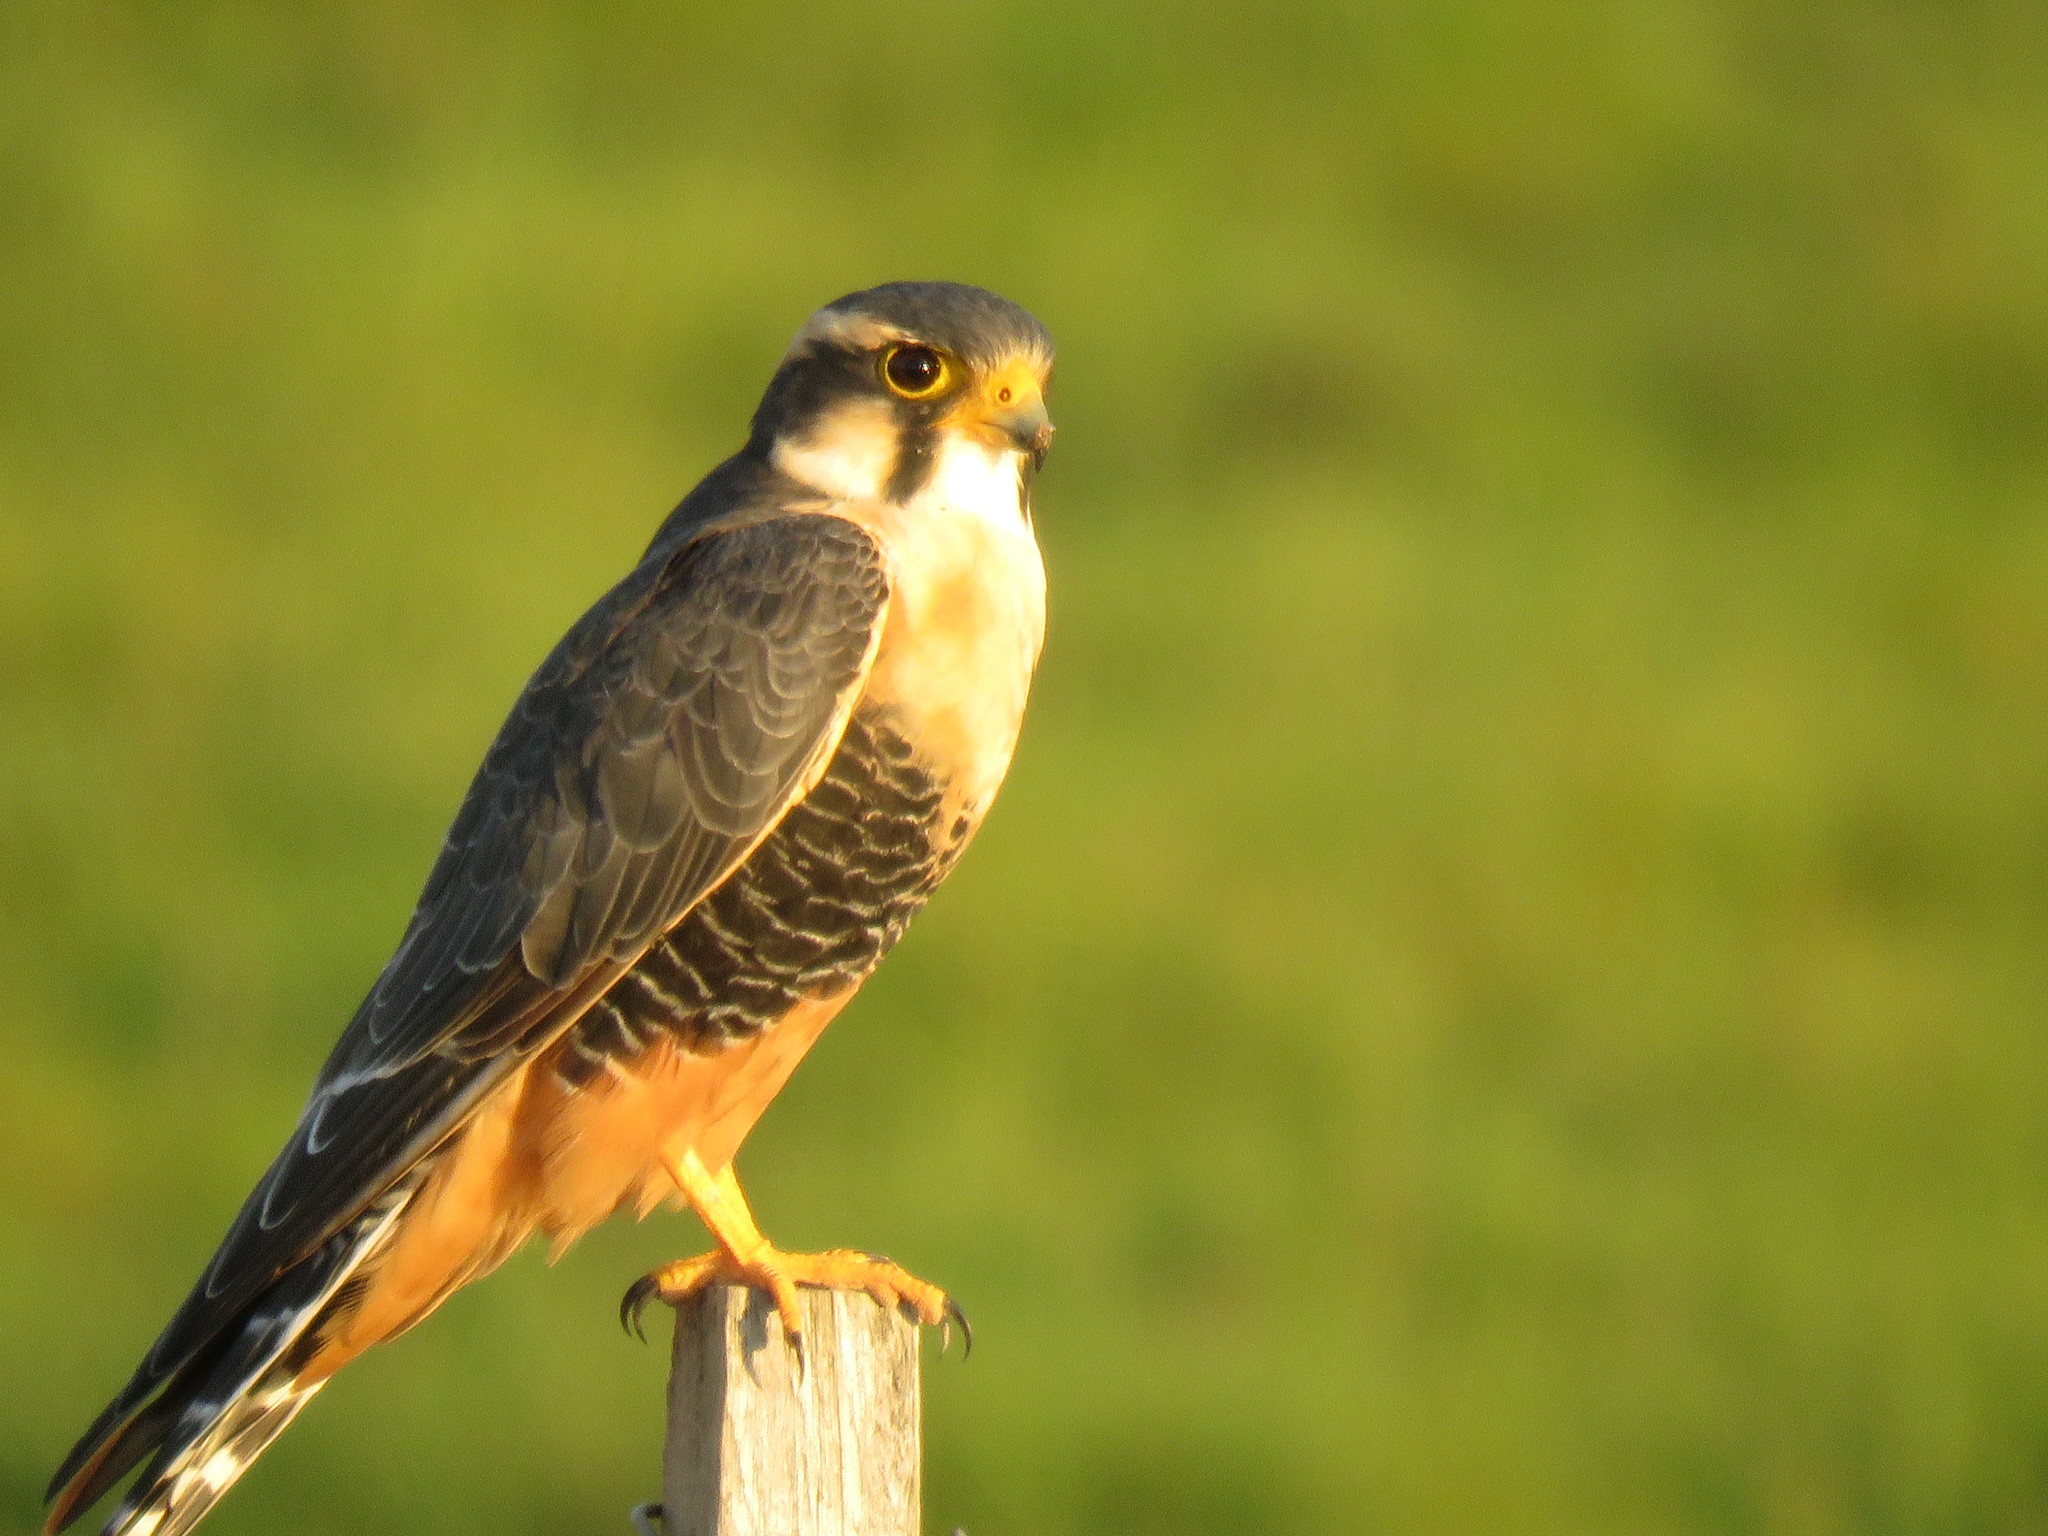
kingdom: Animalia
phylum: Chordata
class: Aves
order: Falconiformes
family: Falconidae
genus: Falco
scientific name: Falco femoralis
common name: Aplomado falcon
